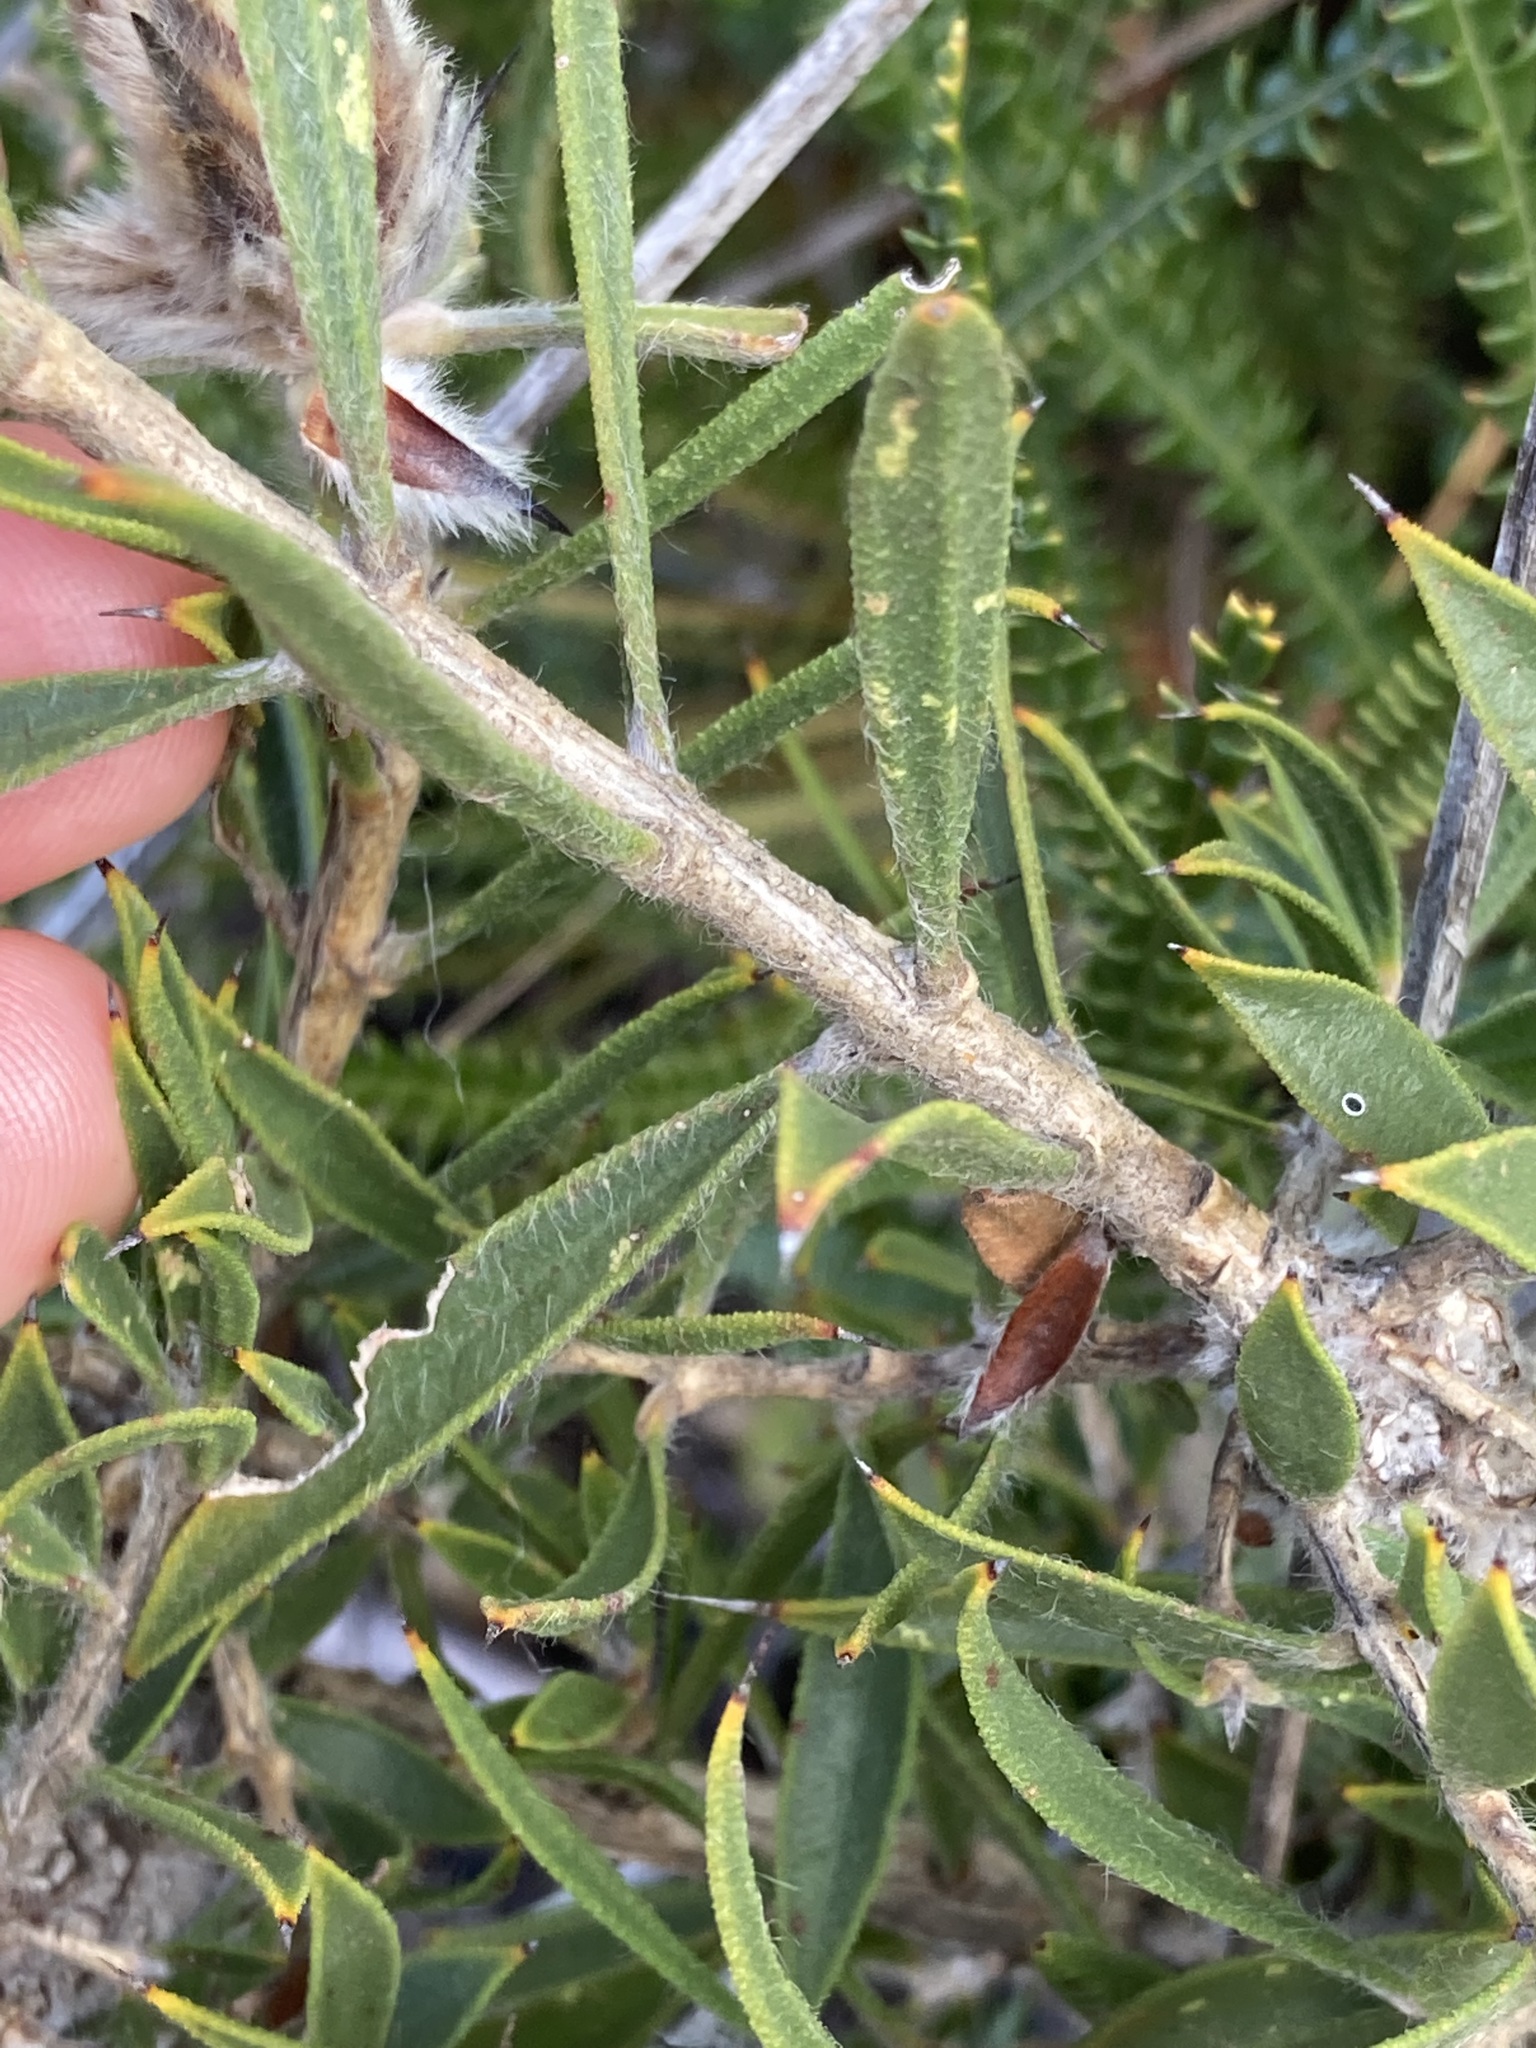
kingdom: Plantae
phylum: Tracheophyta
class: Magnoliopsida
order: Myrtales
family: Myrtaceae
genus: Melaleuca
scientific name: Melaleuca cowleyae
